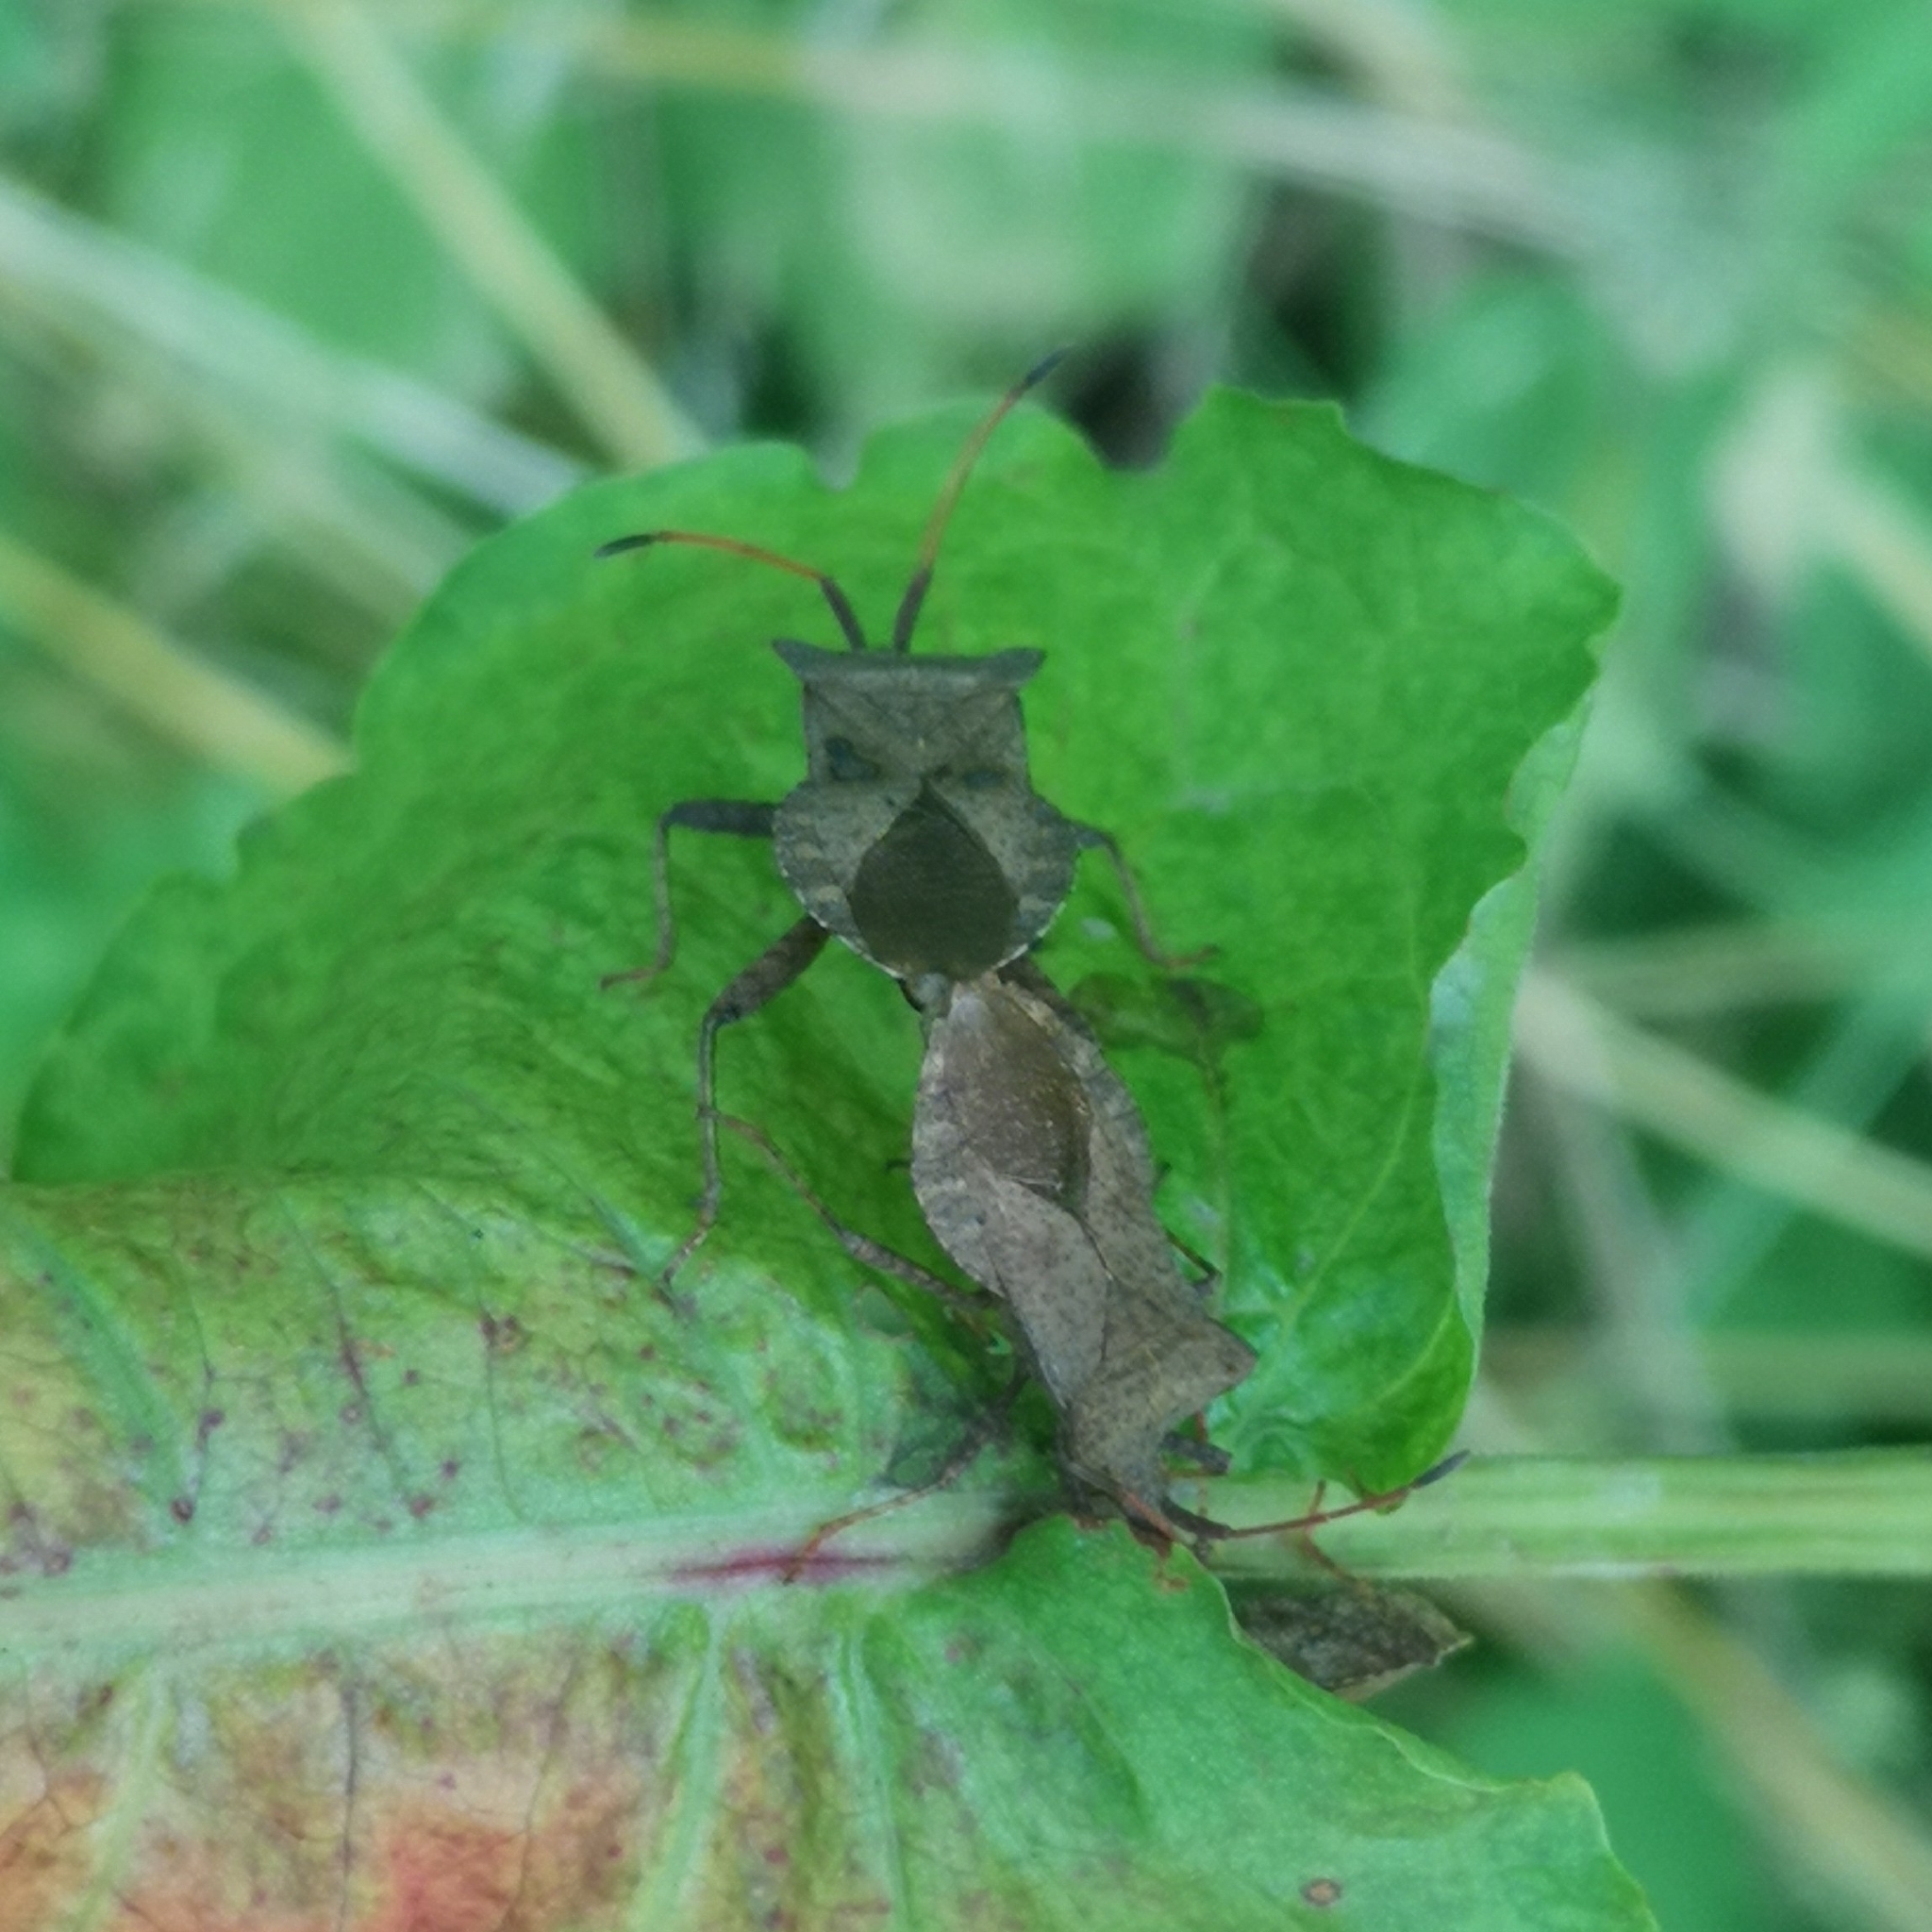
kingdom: Animalia
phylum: Arthropoda
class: Insecta
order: Hemiptera
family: Coreidae
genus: Coreus
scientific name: Coreus marginatus
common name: Dock bug
